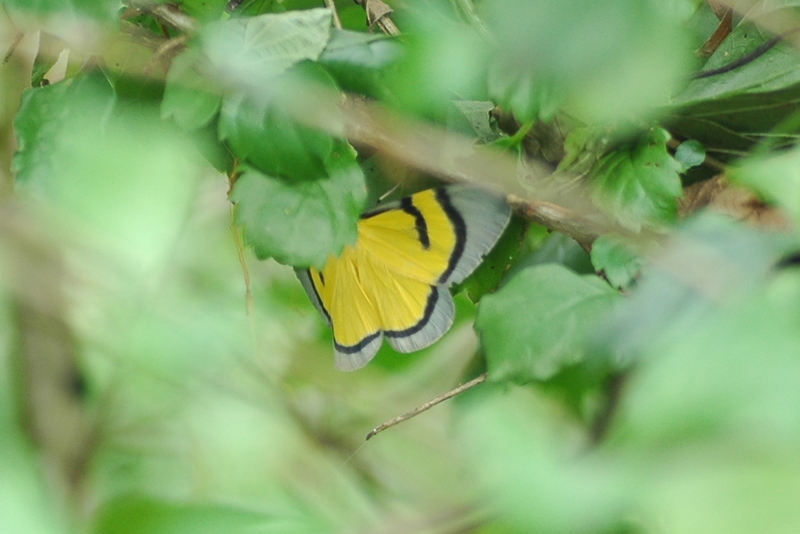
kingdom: Animalia
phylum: Arthropoda
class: Insecta
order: Lepidoptera
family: Geometridae
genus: Celerena
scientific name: Celerena divisa
